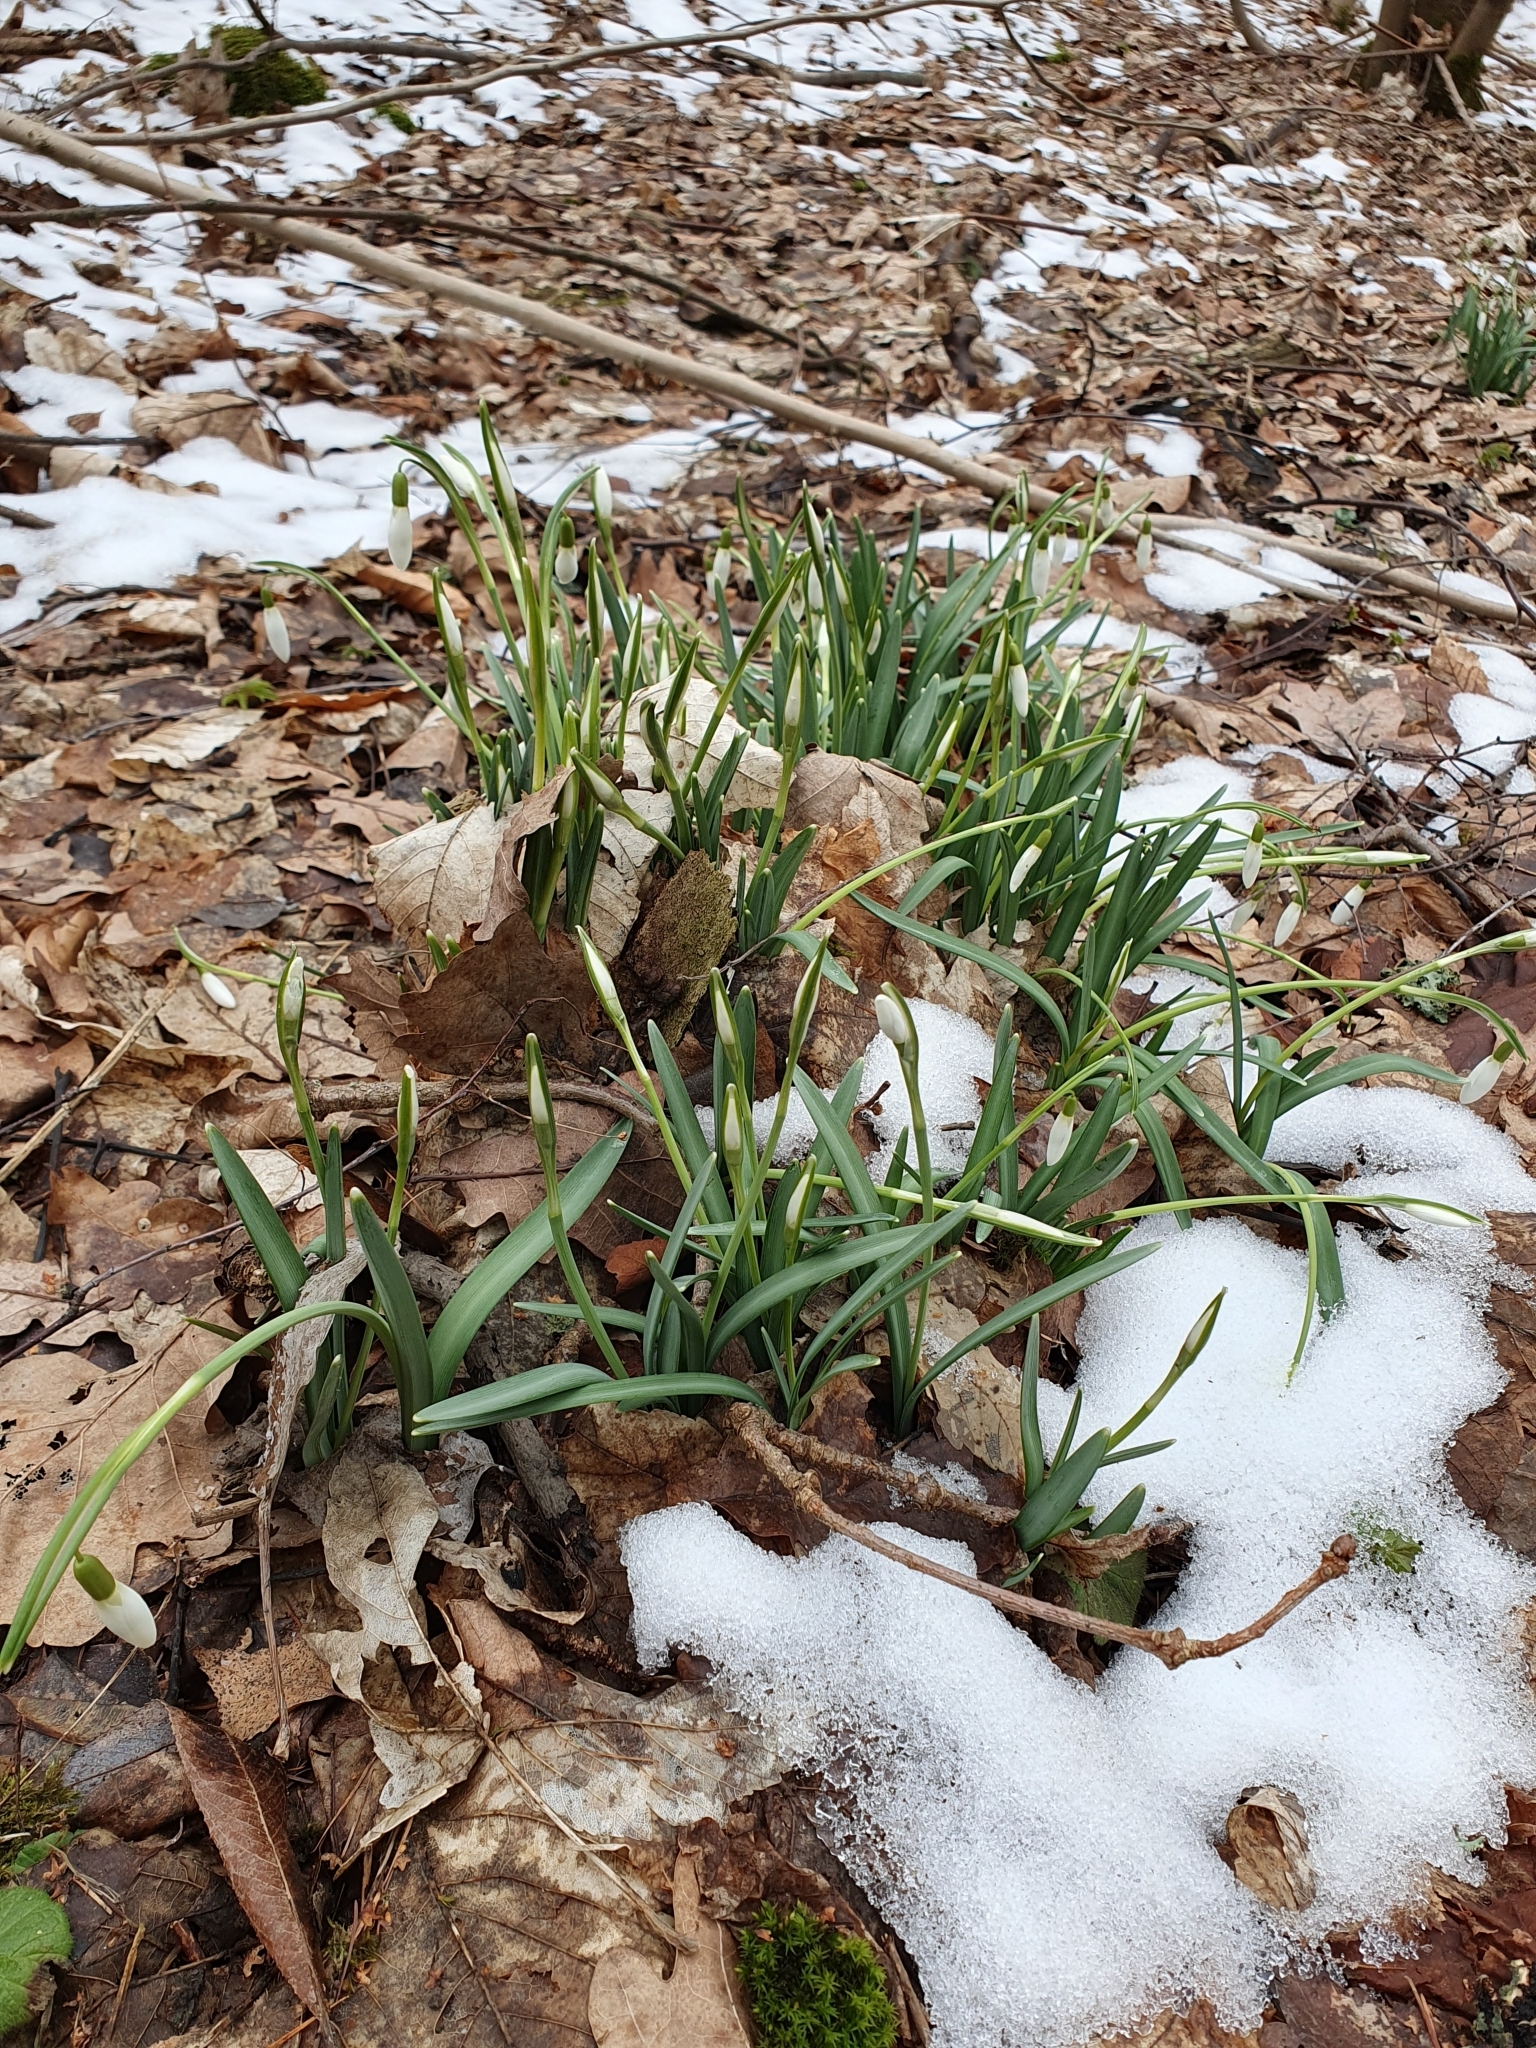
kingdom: Plantae
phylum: Tracheophyta
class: Liliopsida
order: Asparagales
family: Amaryllidaceae
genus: Galanthus
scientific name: Galanthus nivalis
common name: Snowdrop
